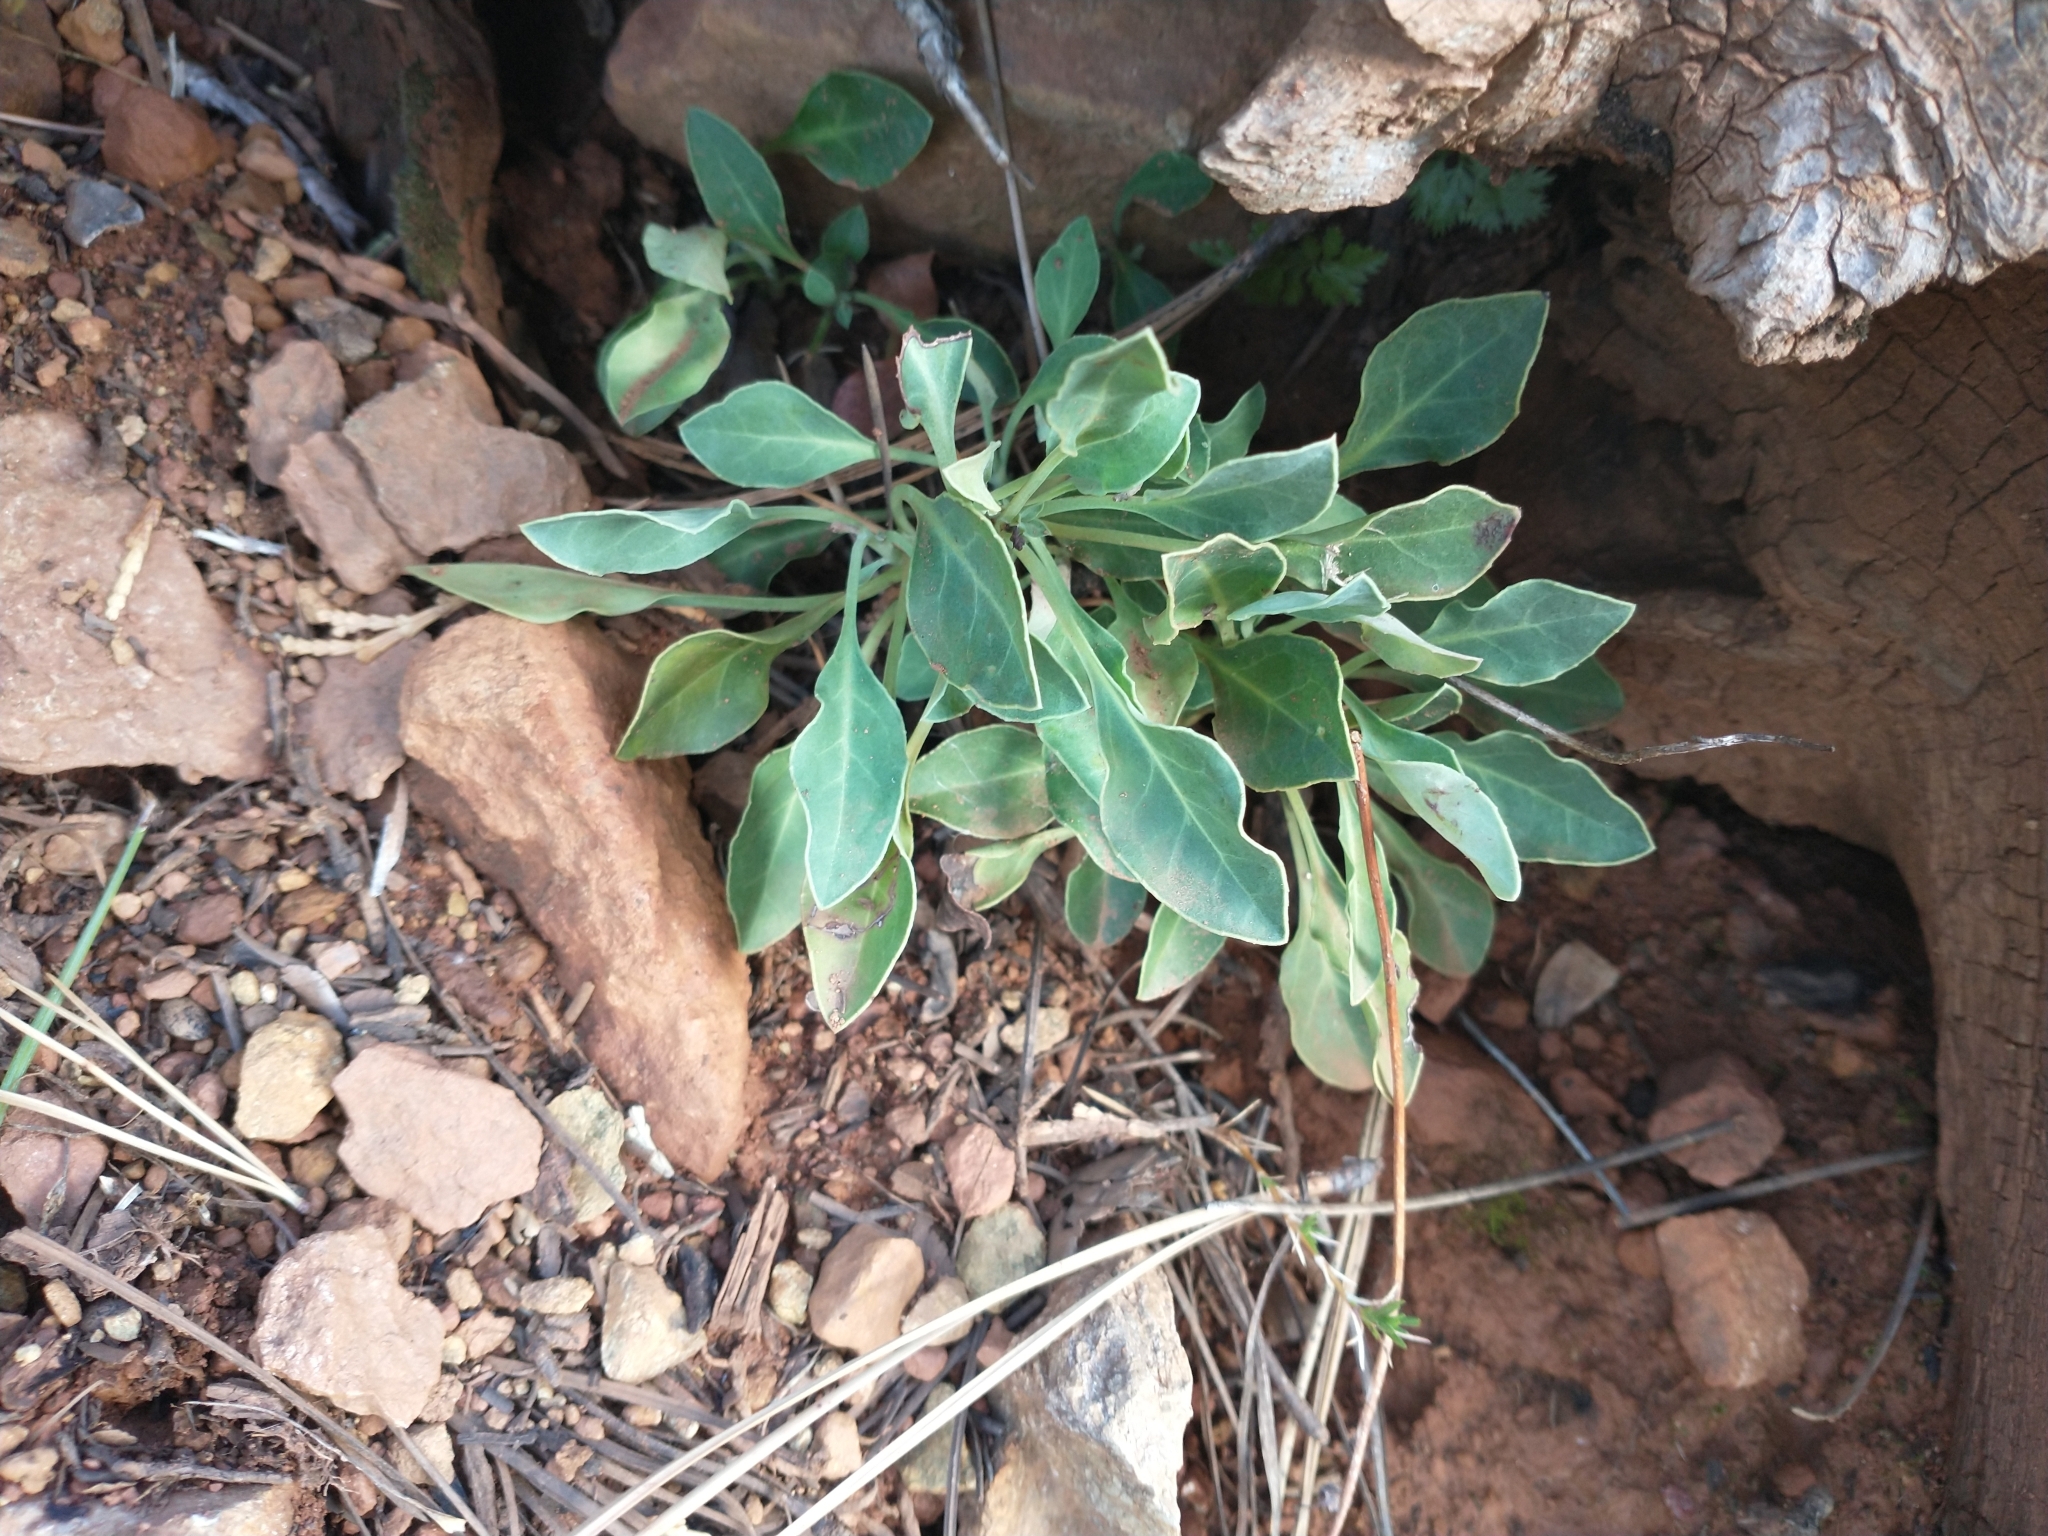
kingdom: Plantae
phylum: Tracheophyta
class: Magnoliopsida
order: Ericales
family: Ericaceae
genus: Pyrola
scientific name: Pyrola dentata
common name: Tooth-leaved wintergreen
